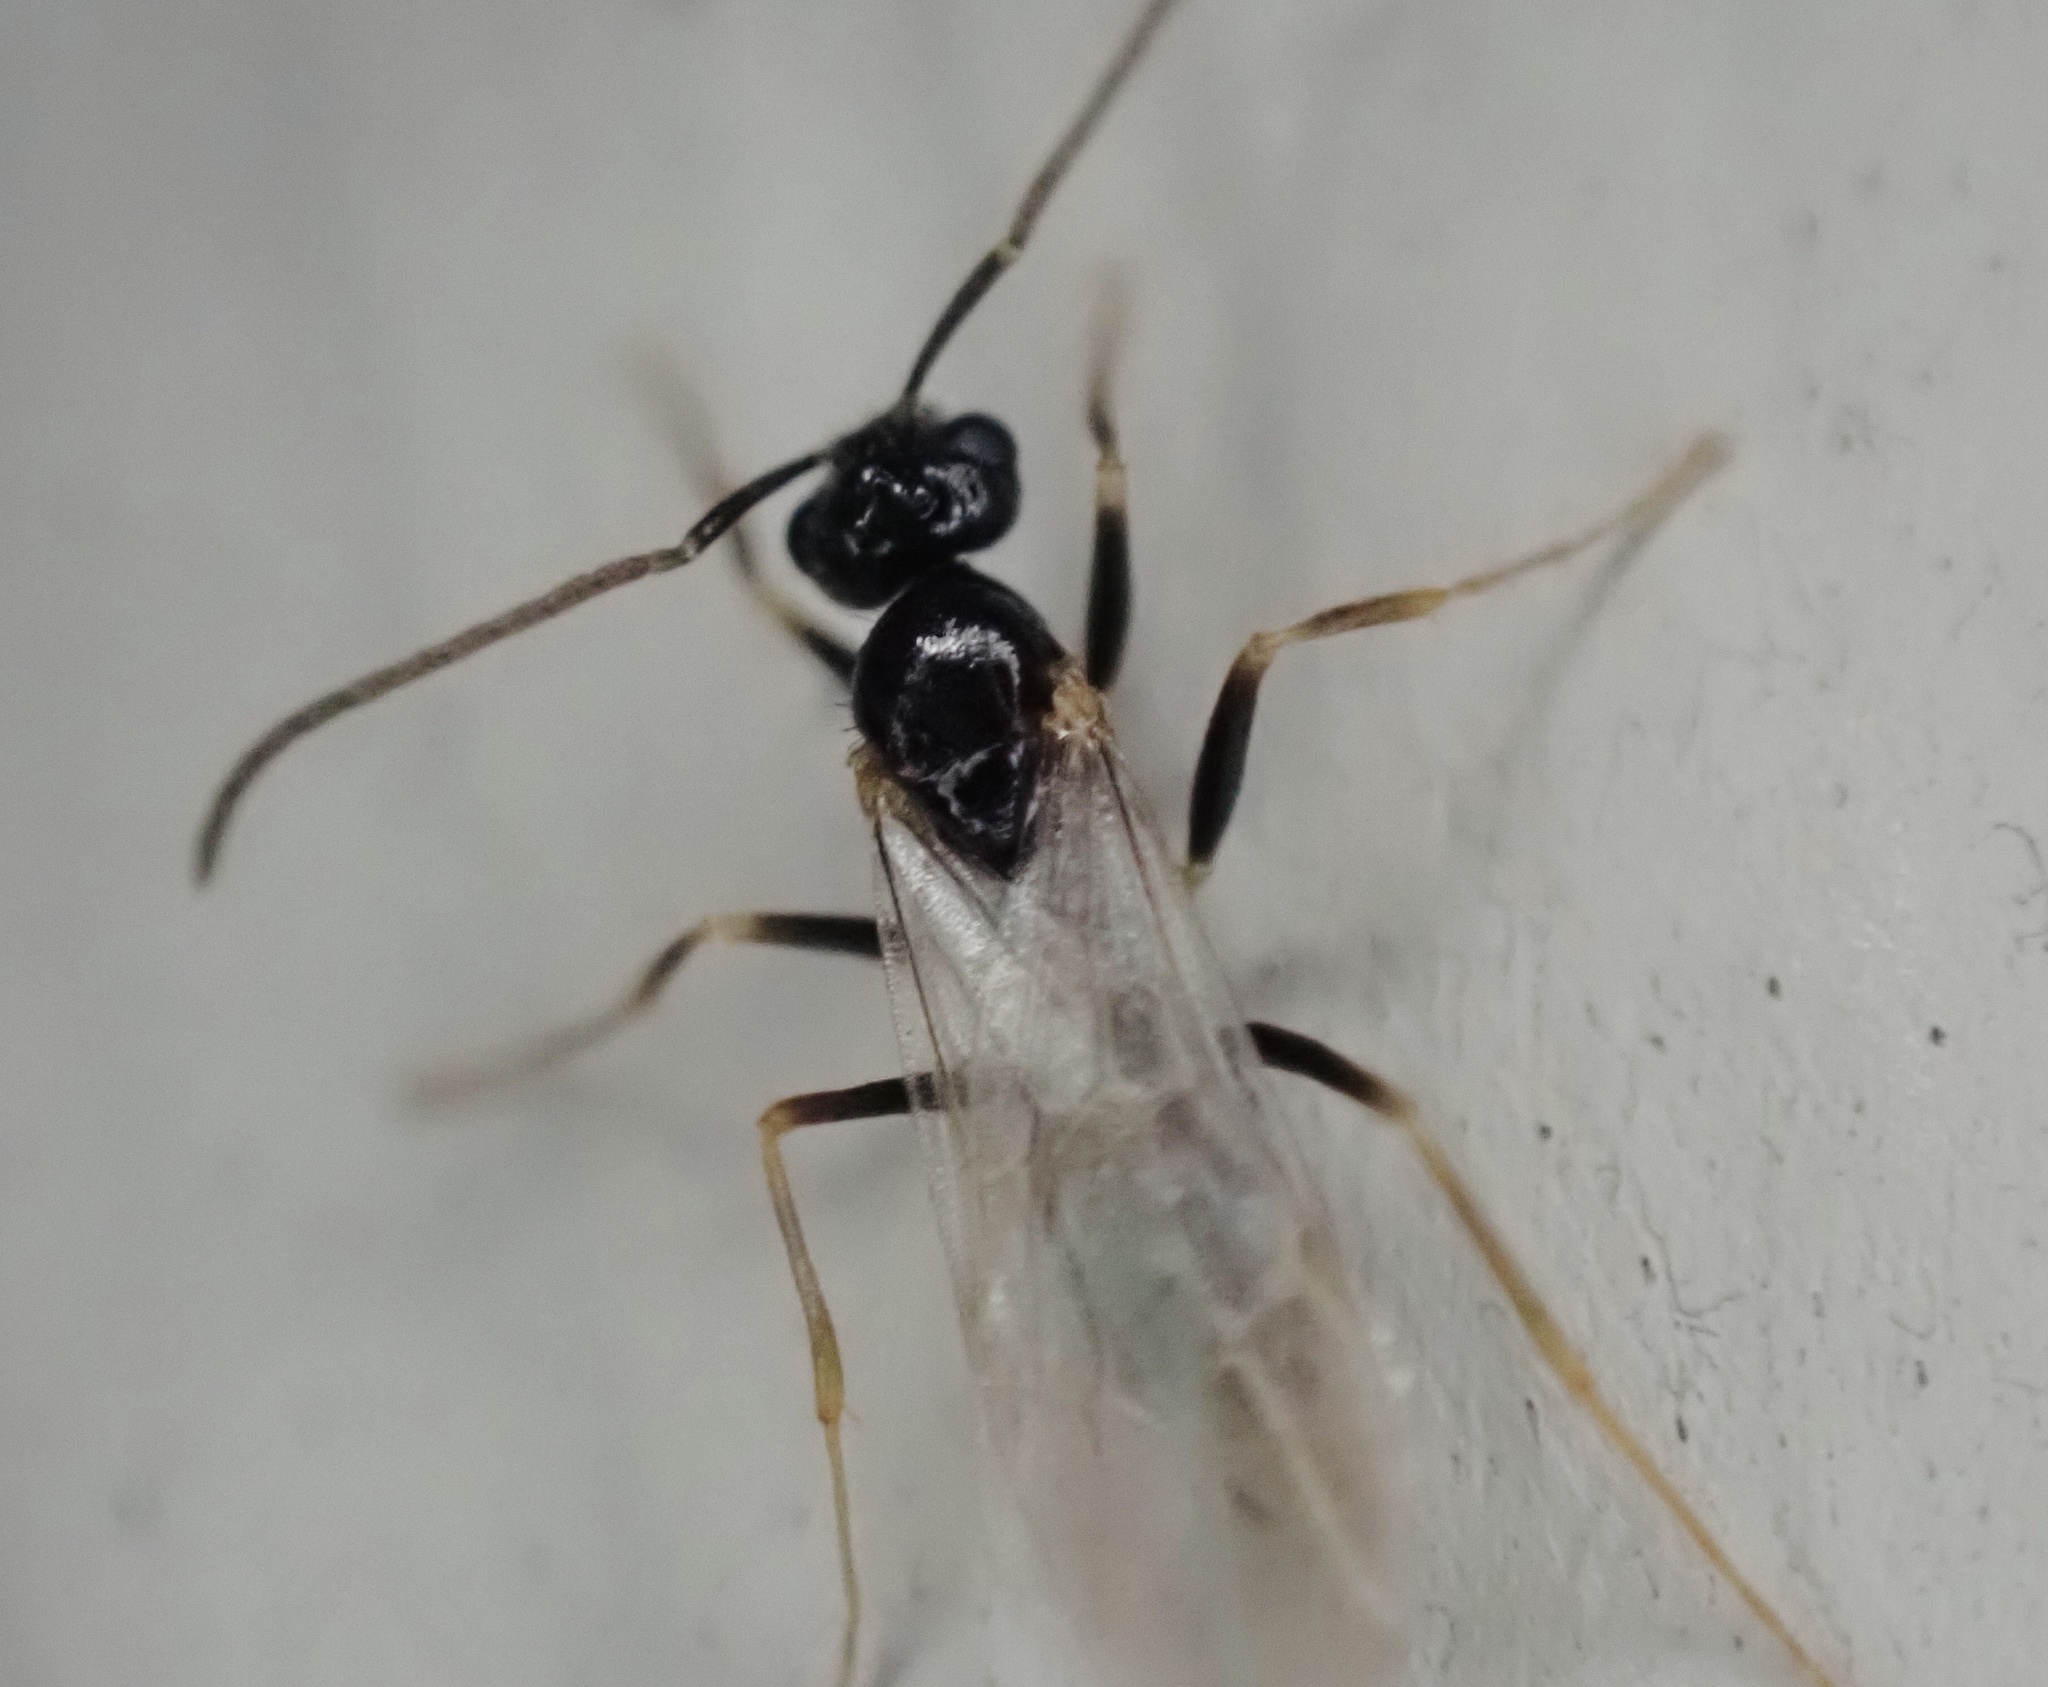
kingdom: Animalia
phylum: Arthropoda
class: Insecta
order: Hymenoptera
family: Formicidae
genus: Prenolepis
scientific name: Prenolepis imparis
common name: Small honey ant
